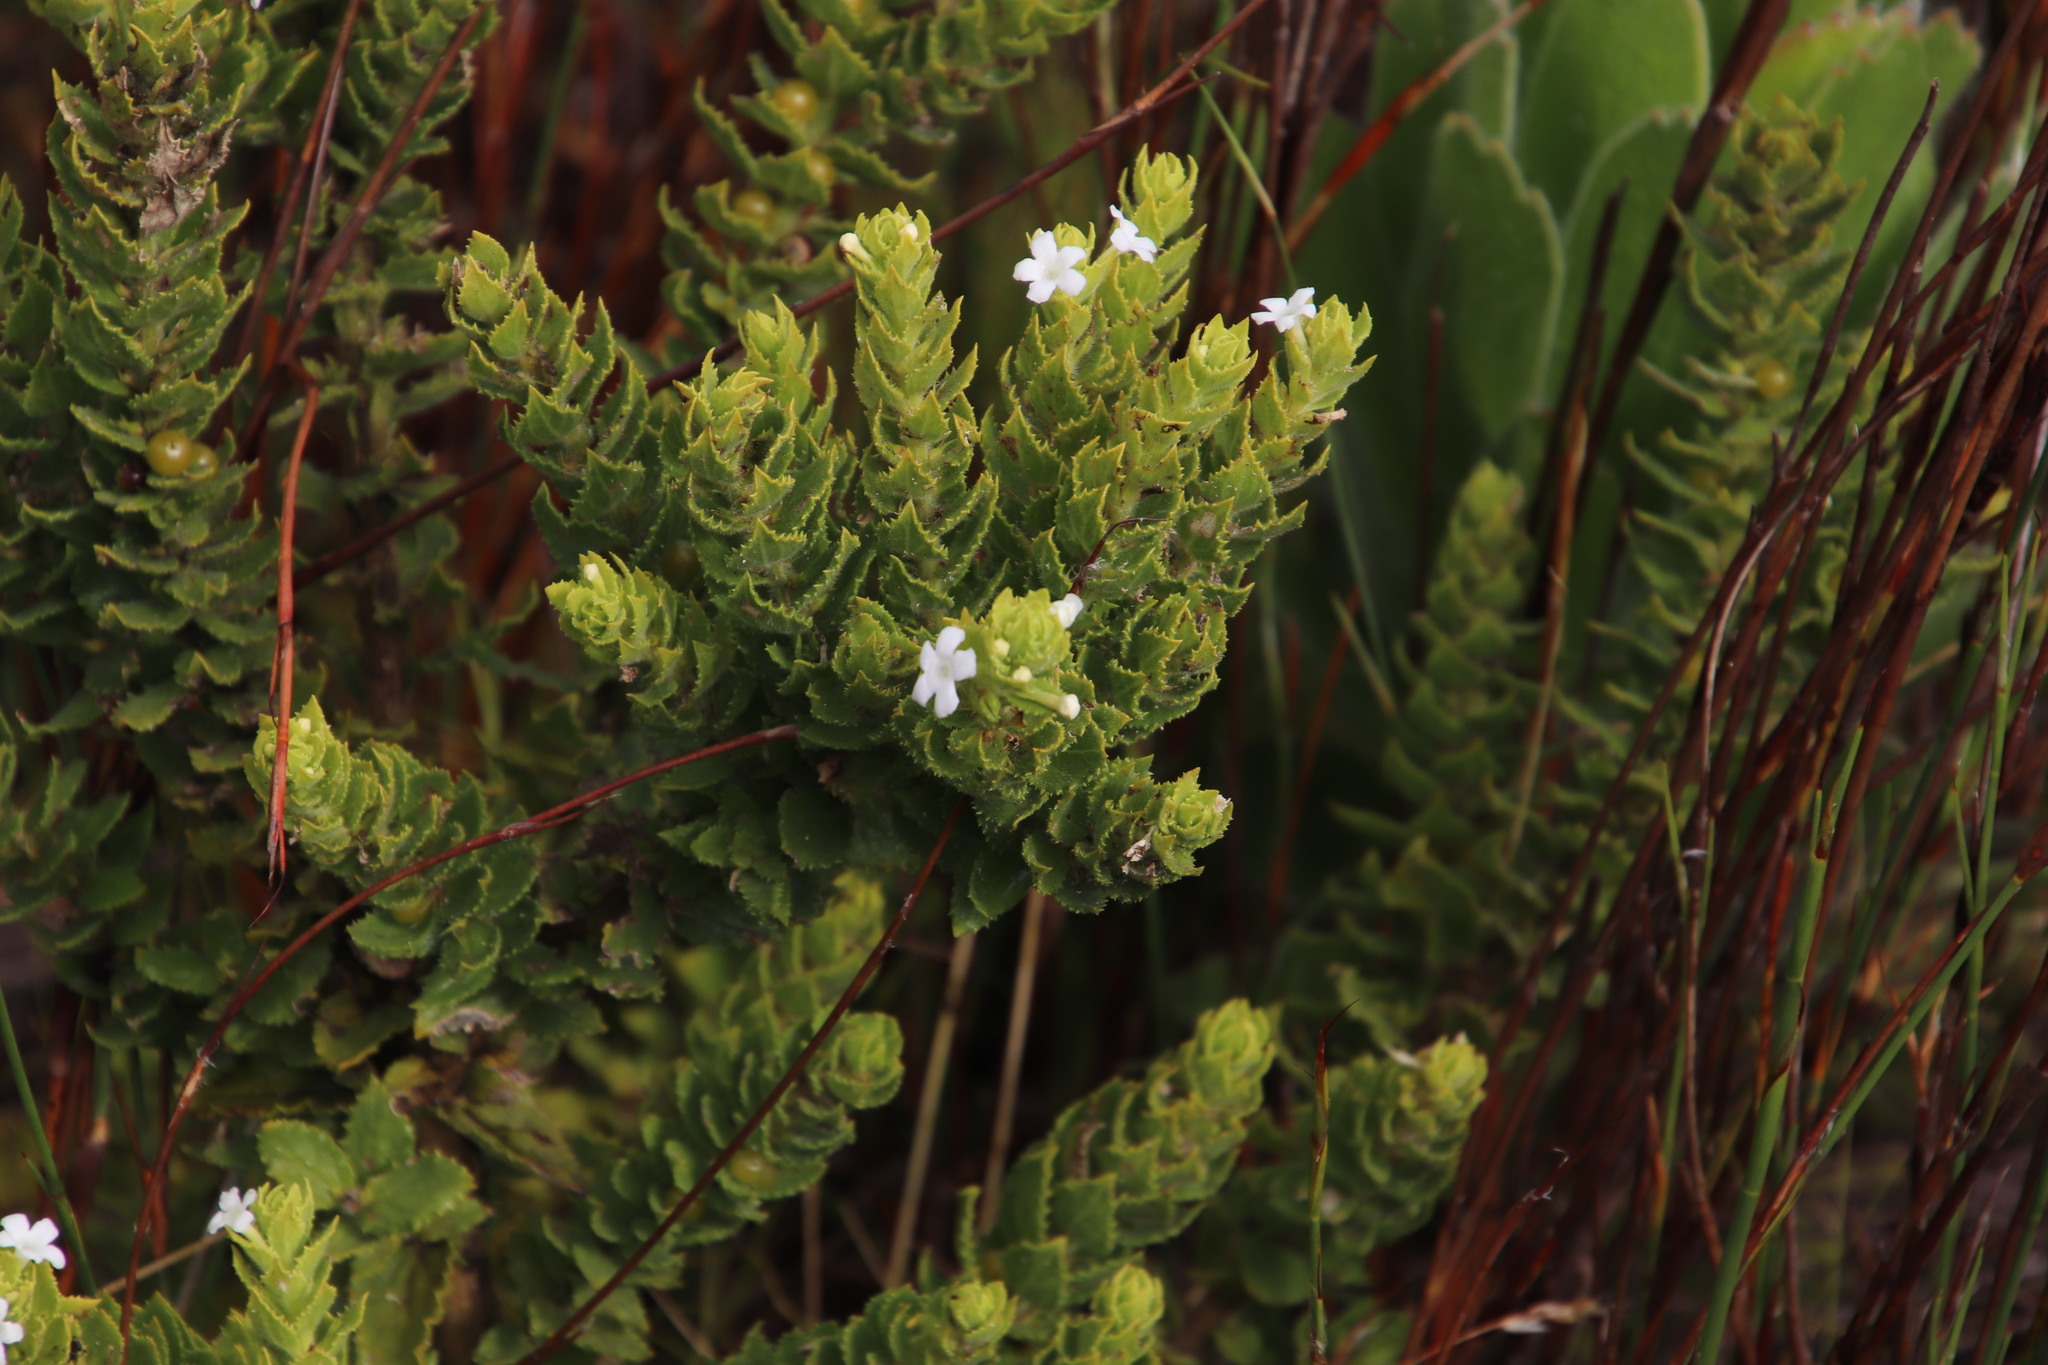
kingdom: Plantae
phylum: Tracheophyta
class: Magnoliopsida
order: Lamiales
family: Scrophulariaceae
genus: Oftia
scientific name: Oftia africana
